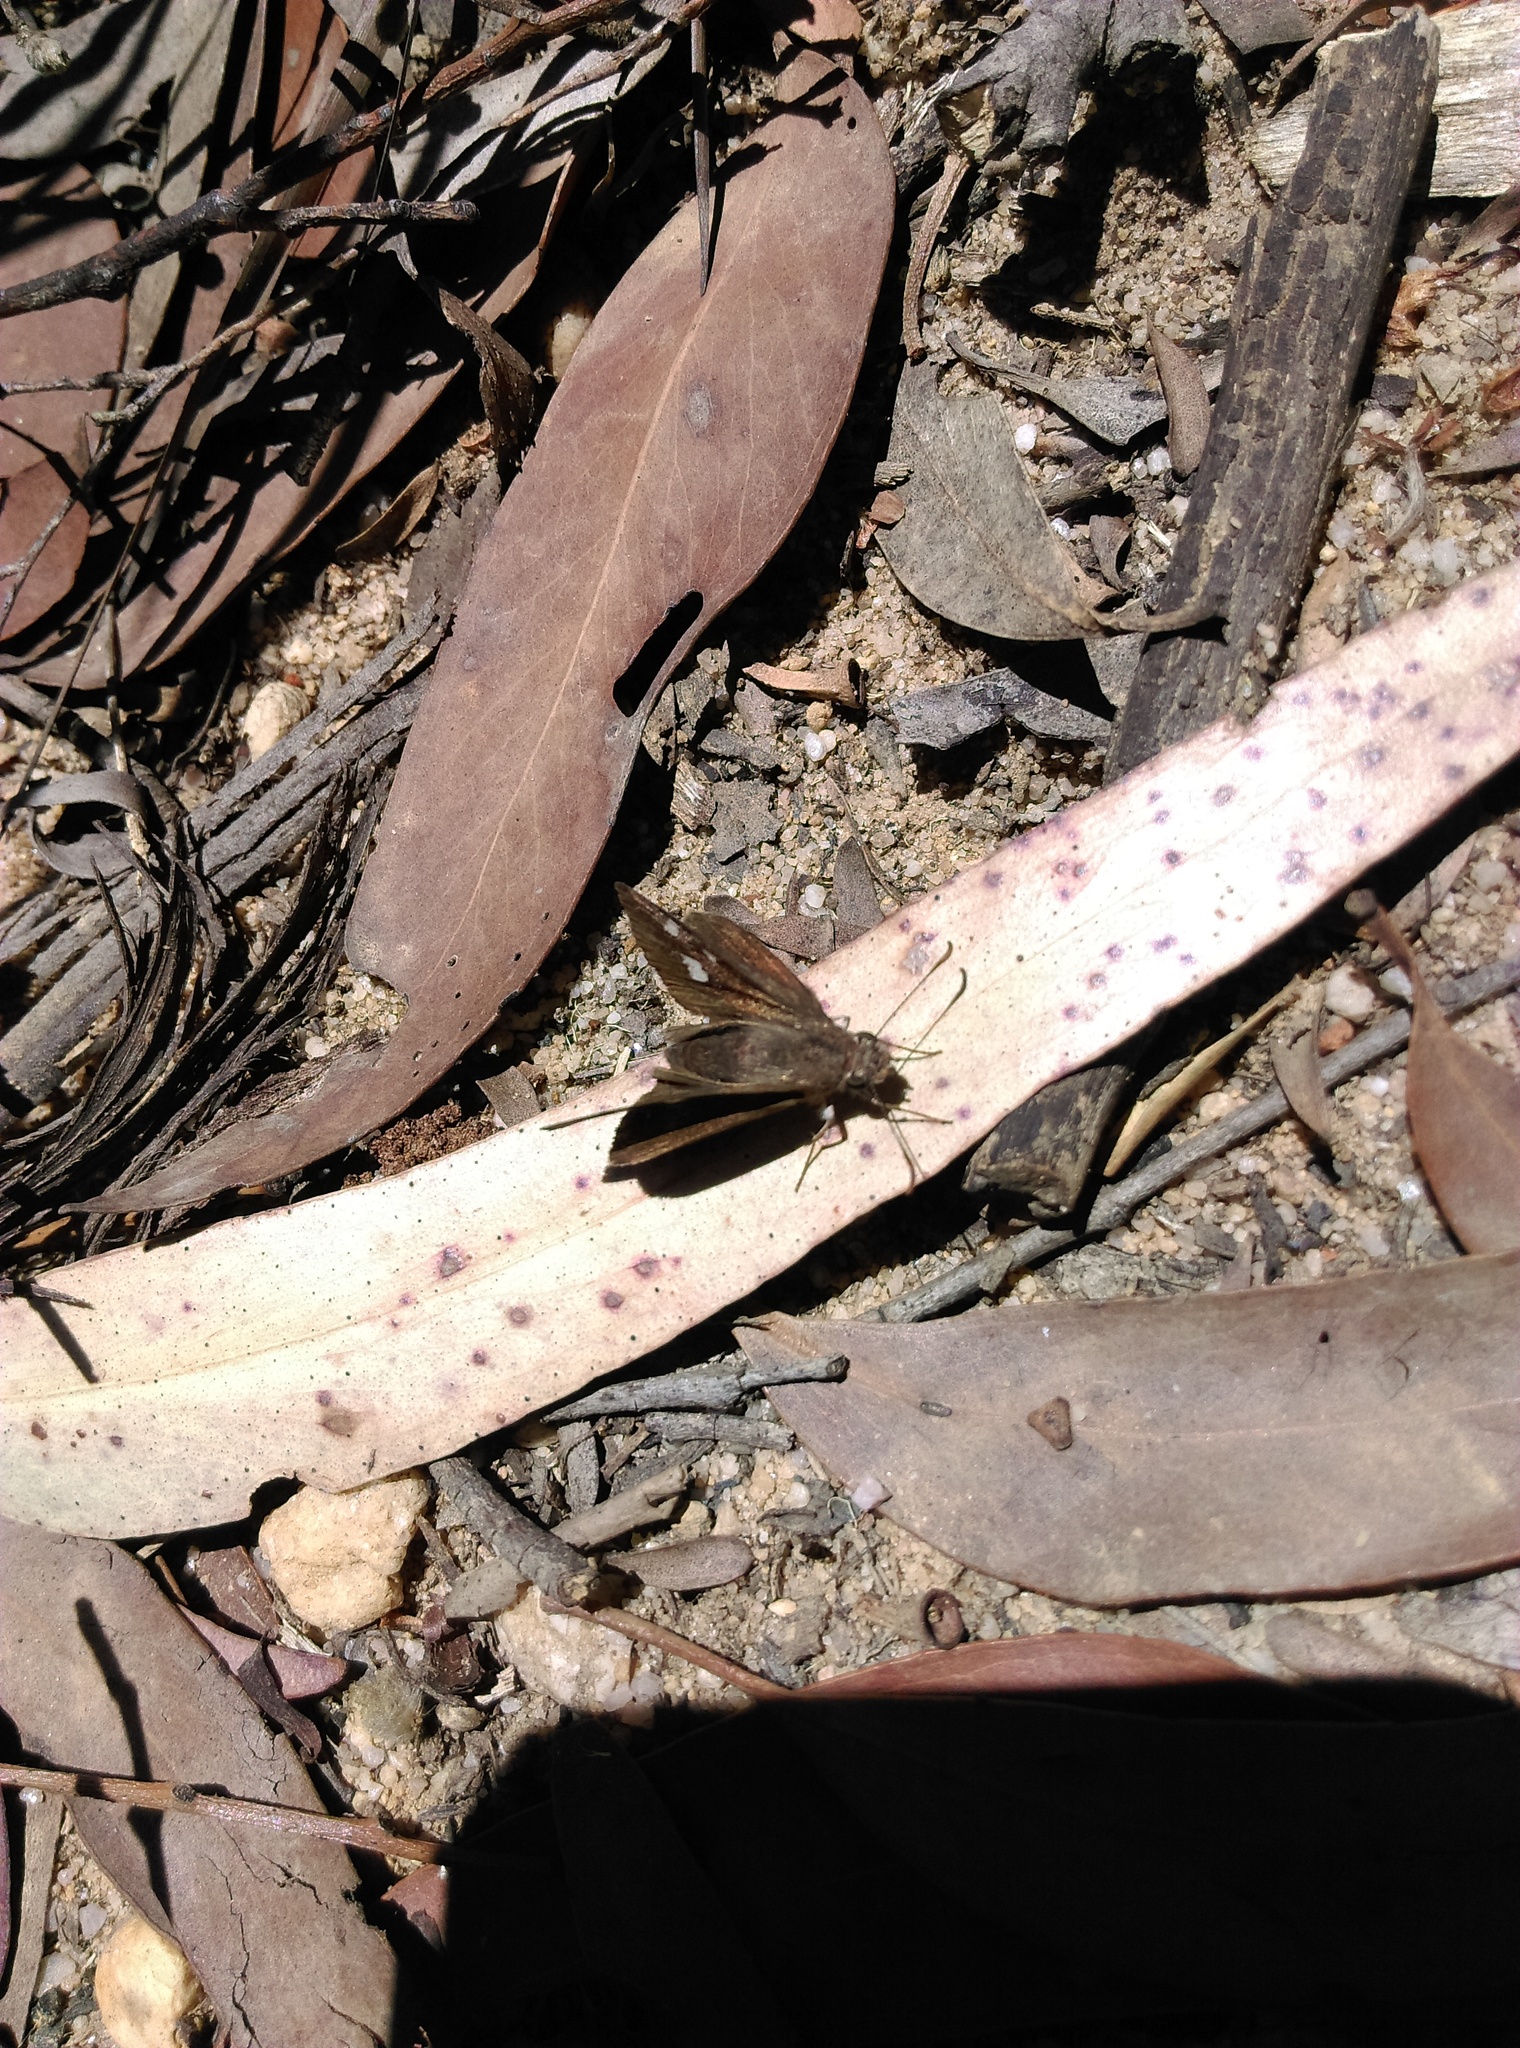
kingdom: Animalia
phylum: Arthropoda
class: Insecta
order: Lepidoptera
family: Hesperiidae
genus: Mesodina
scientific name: Mesodina halyzia
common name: Eastern iris-skipper
